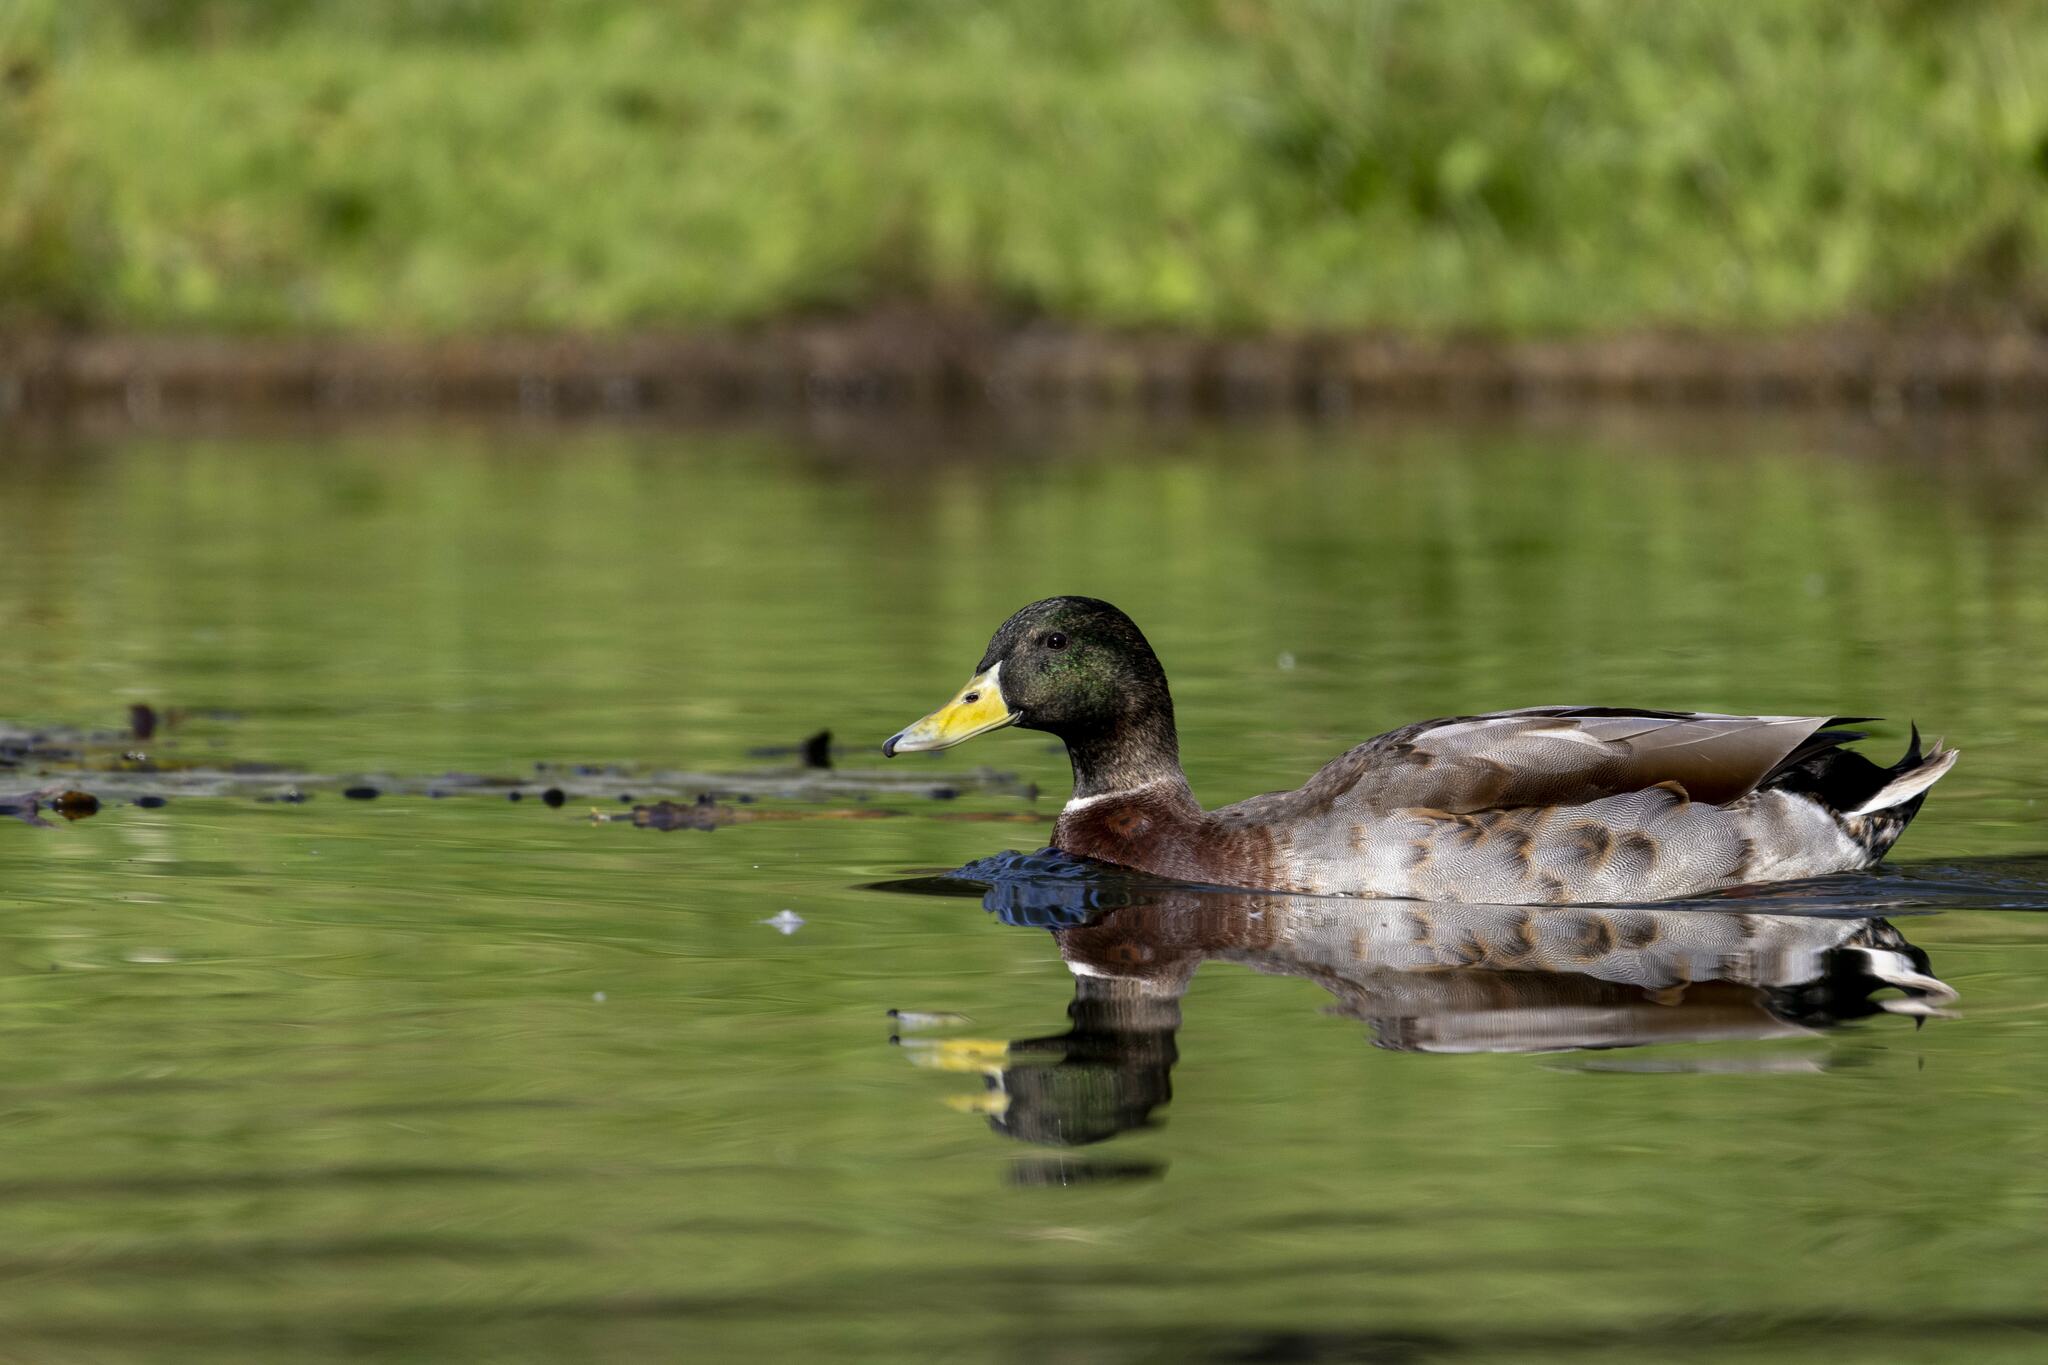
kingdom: Animalia
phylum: Chordata
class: Aves
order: Anseriformes
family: Anatidae
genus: Anas
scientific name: Anas platyrhynchos
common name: Mallard
